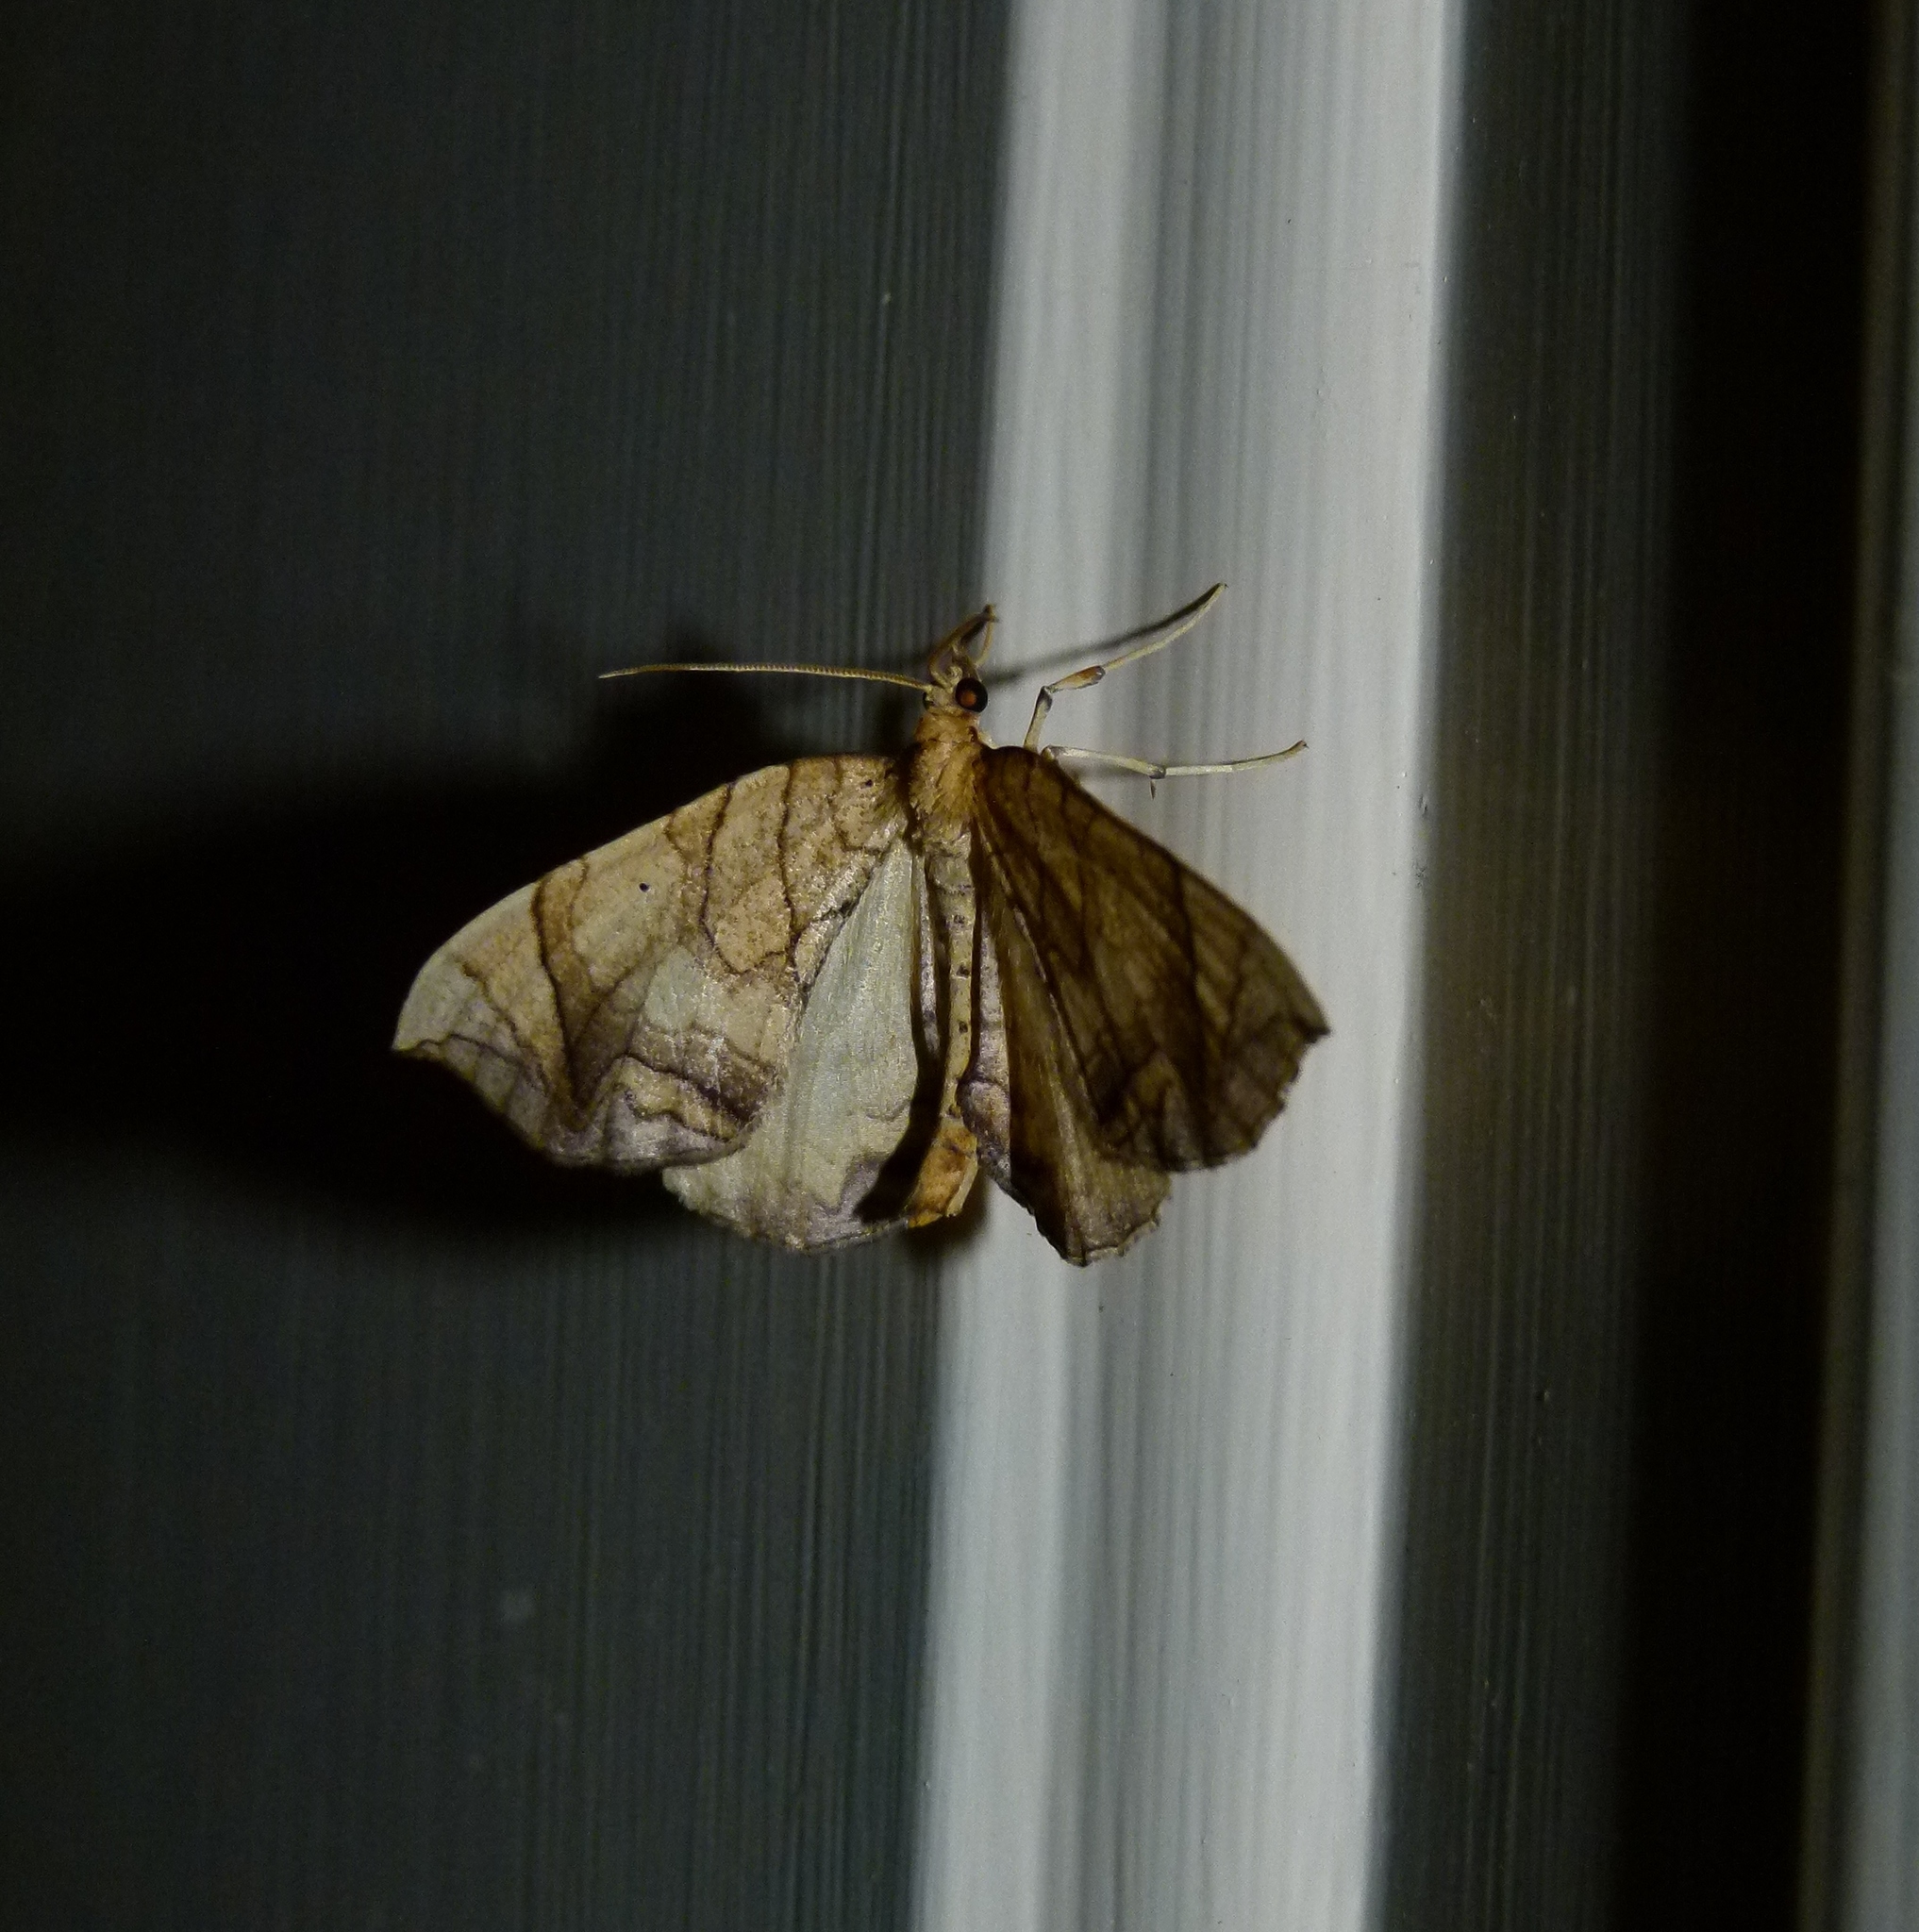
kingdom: Animalia
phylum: Arthropoda
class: Insecta
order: Lepidoptera
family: Geometridae
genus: Eulithis
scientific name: Eulithis gracilineata
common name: Greater grapevine looper moth
